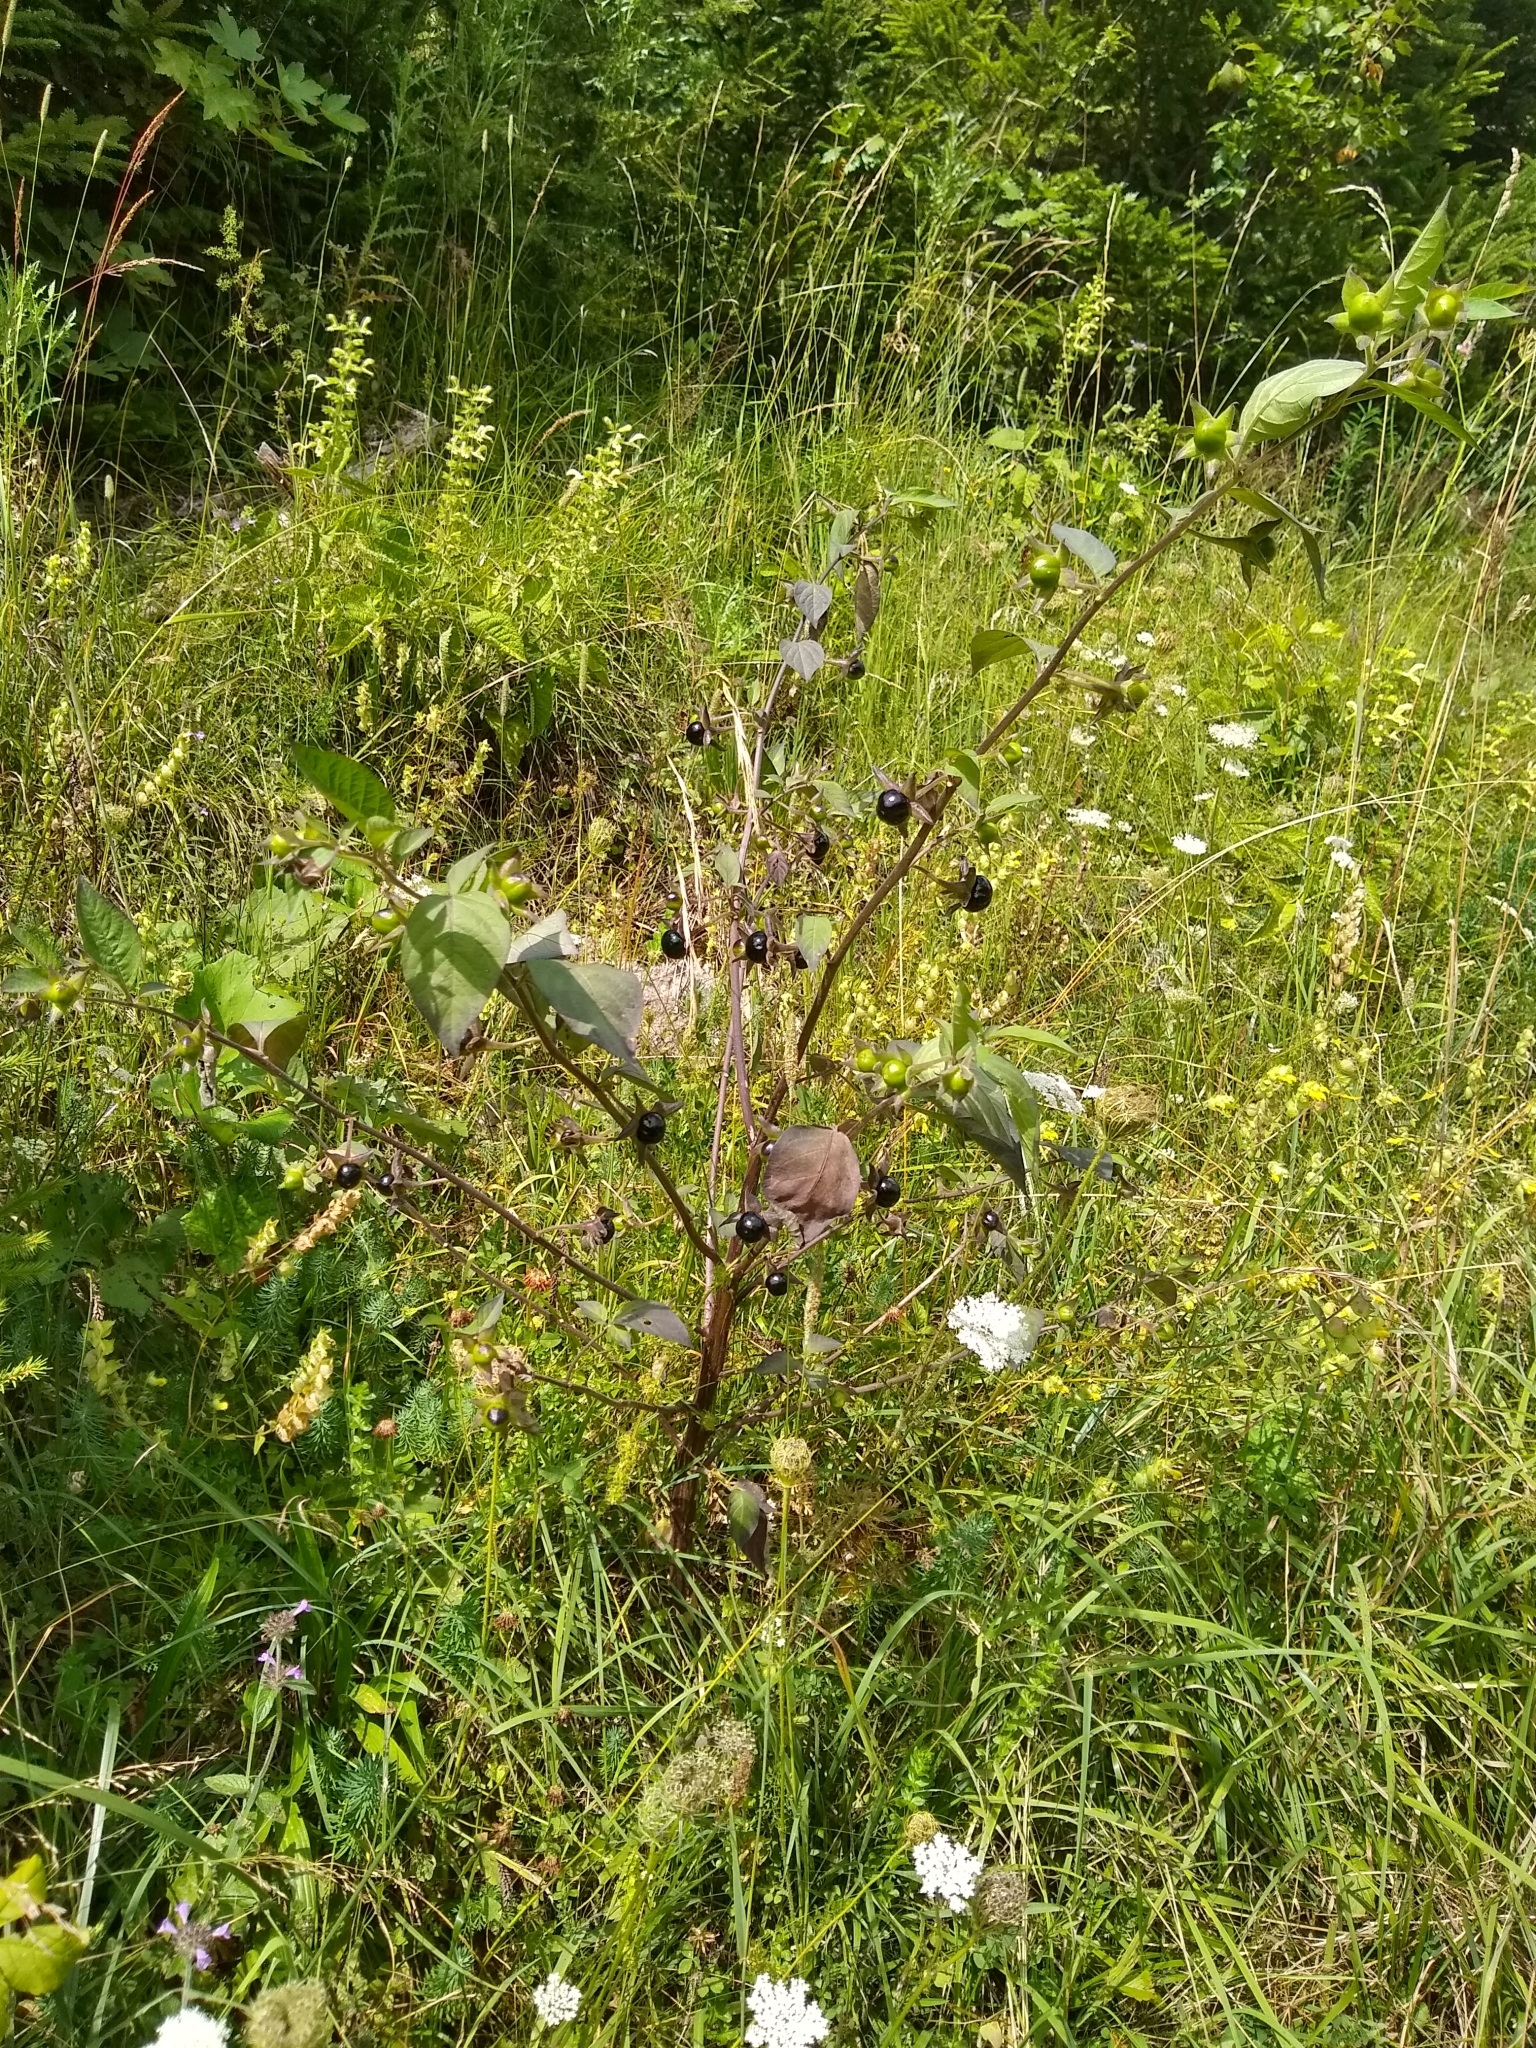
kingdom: Plantae
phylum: Tracheophyta
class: Magnoliopsida
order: Solanales
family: Solanaceae
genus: Atropa
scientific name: Atropa belladonna
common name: Deadly nightshade
